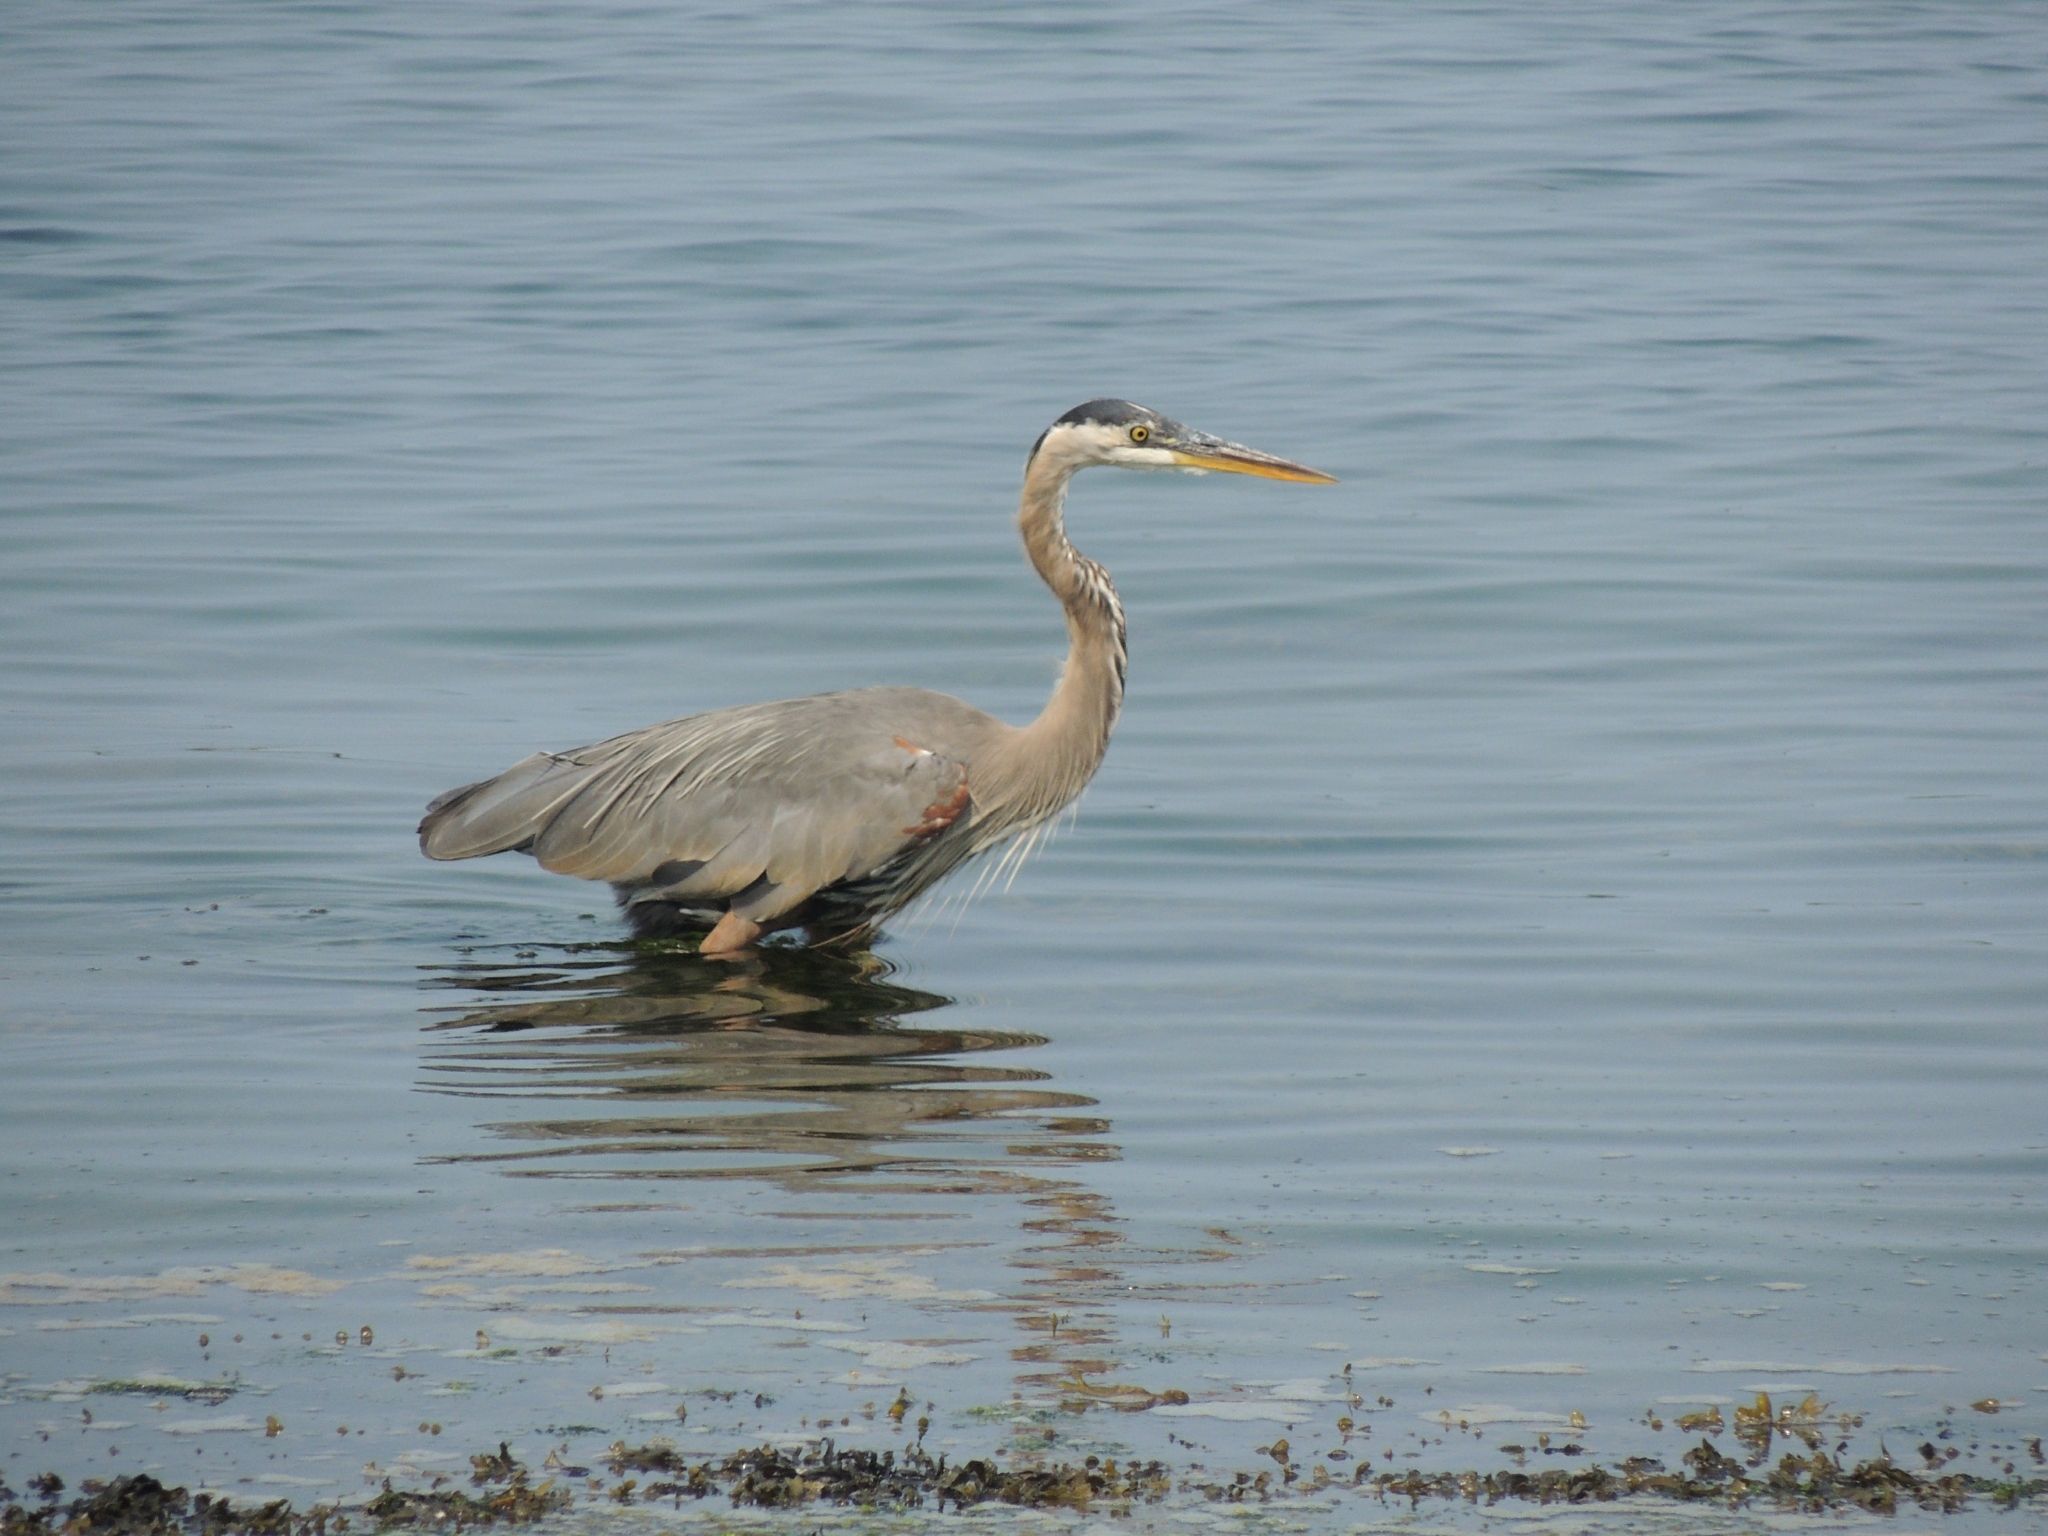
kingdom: Animalia
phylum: Chordata
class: Aves
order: Pelecaniformes
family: Ardeidae
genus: Ardea
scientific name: Ardea herodias
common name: Great blue heron
